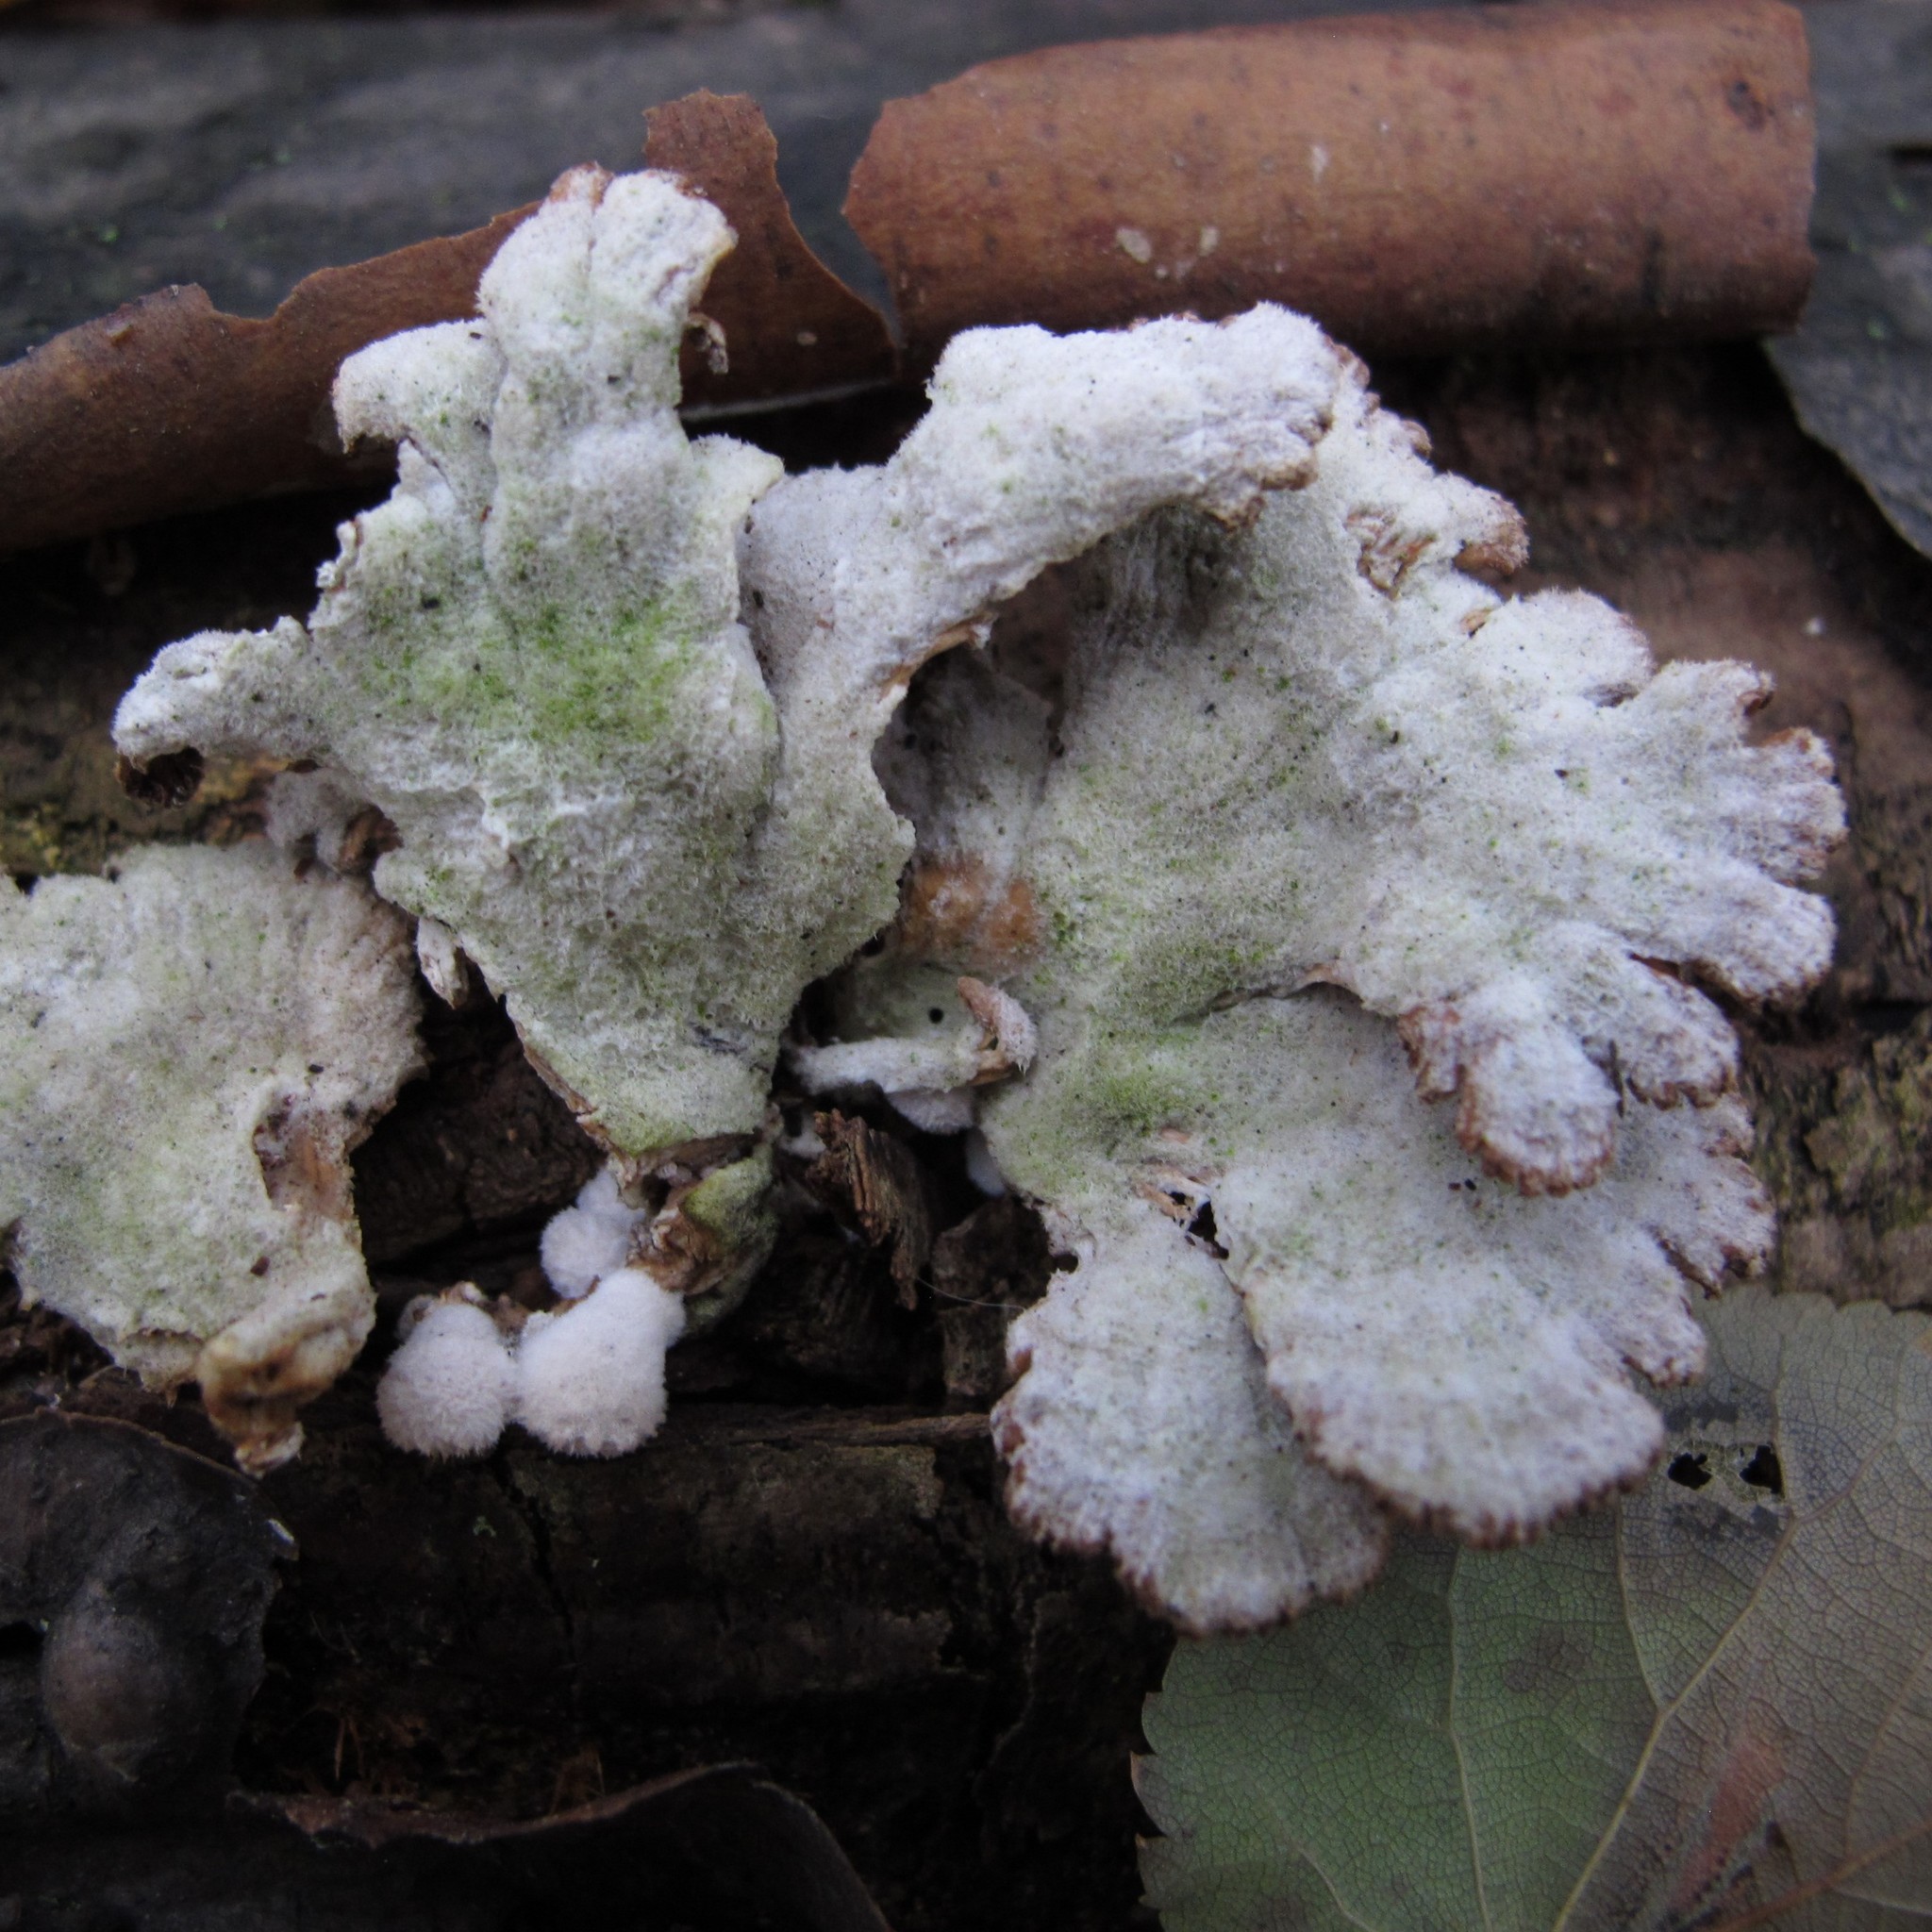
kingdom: Fungi
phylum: Basidiomycota
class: Agaricomycetes
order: Agaricales
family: Schizophyllaceae
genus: Schizophyllum
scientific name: Schizophyllum commune
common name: Common porecrust
